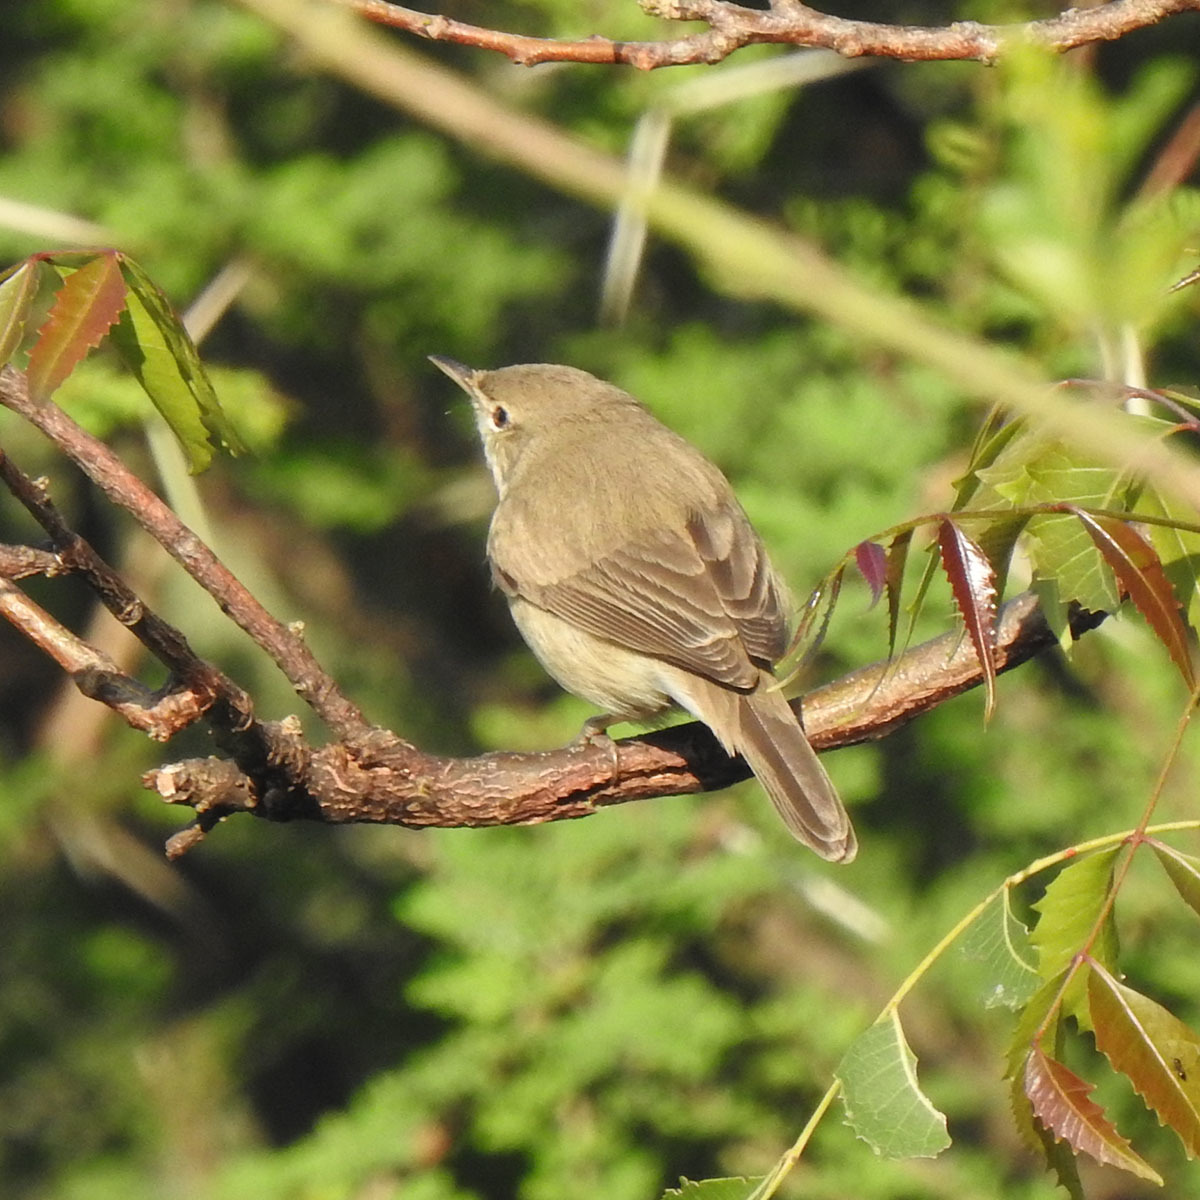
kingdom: Animalia
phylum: Chordata
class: Aves
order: Passeriformes
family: Acrocephalidae
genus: Iduna
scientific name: Iduna caligata
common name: Booted warbler
